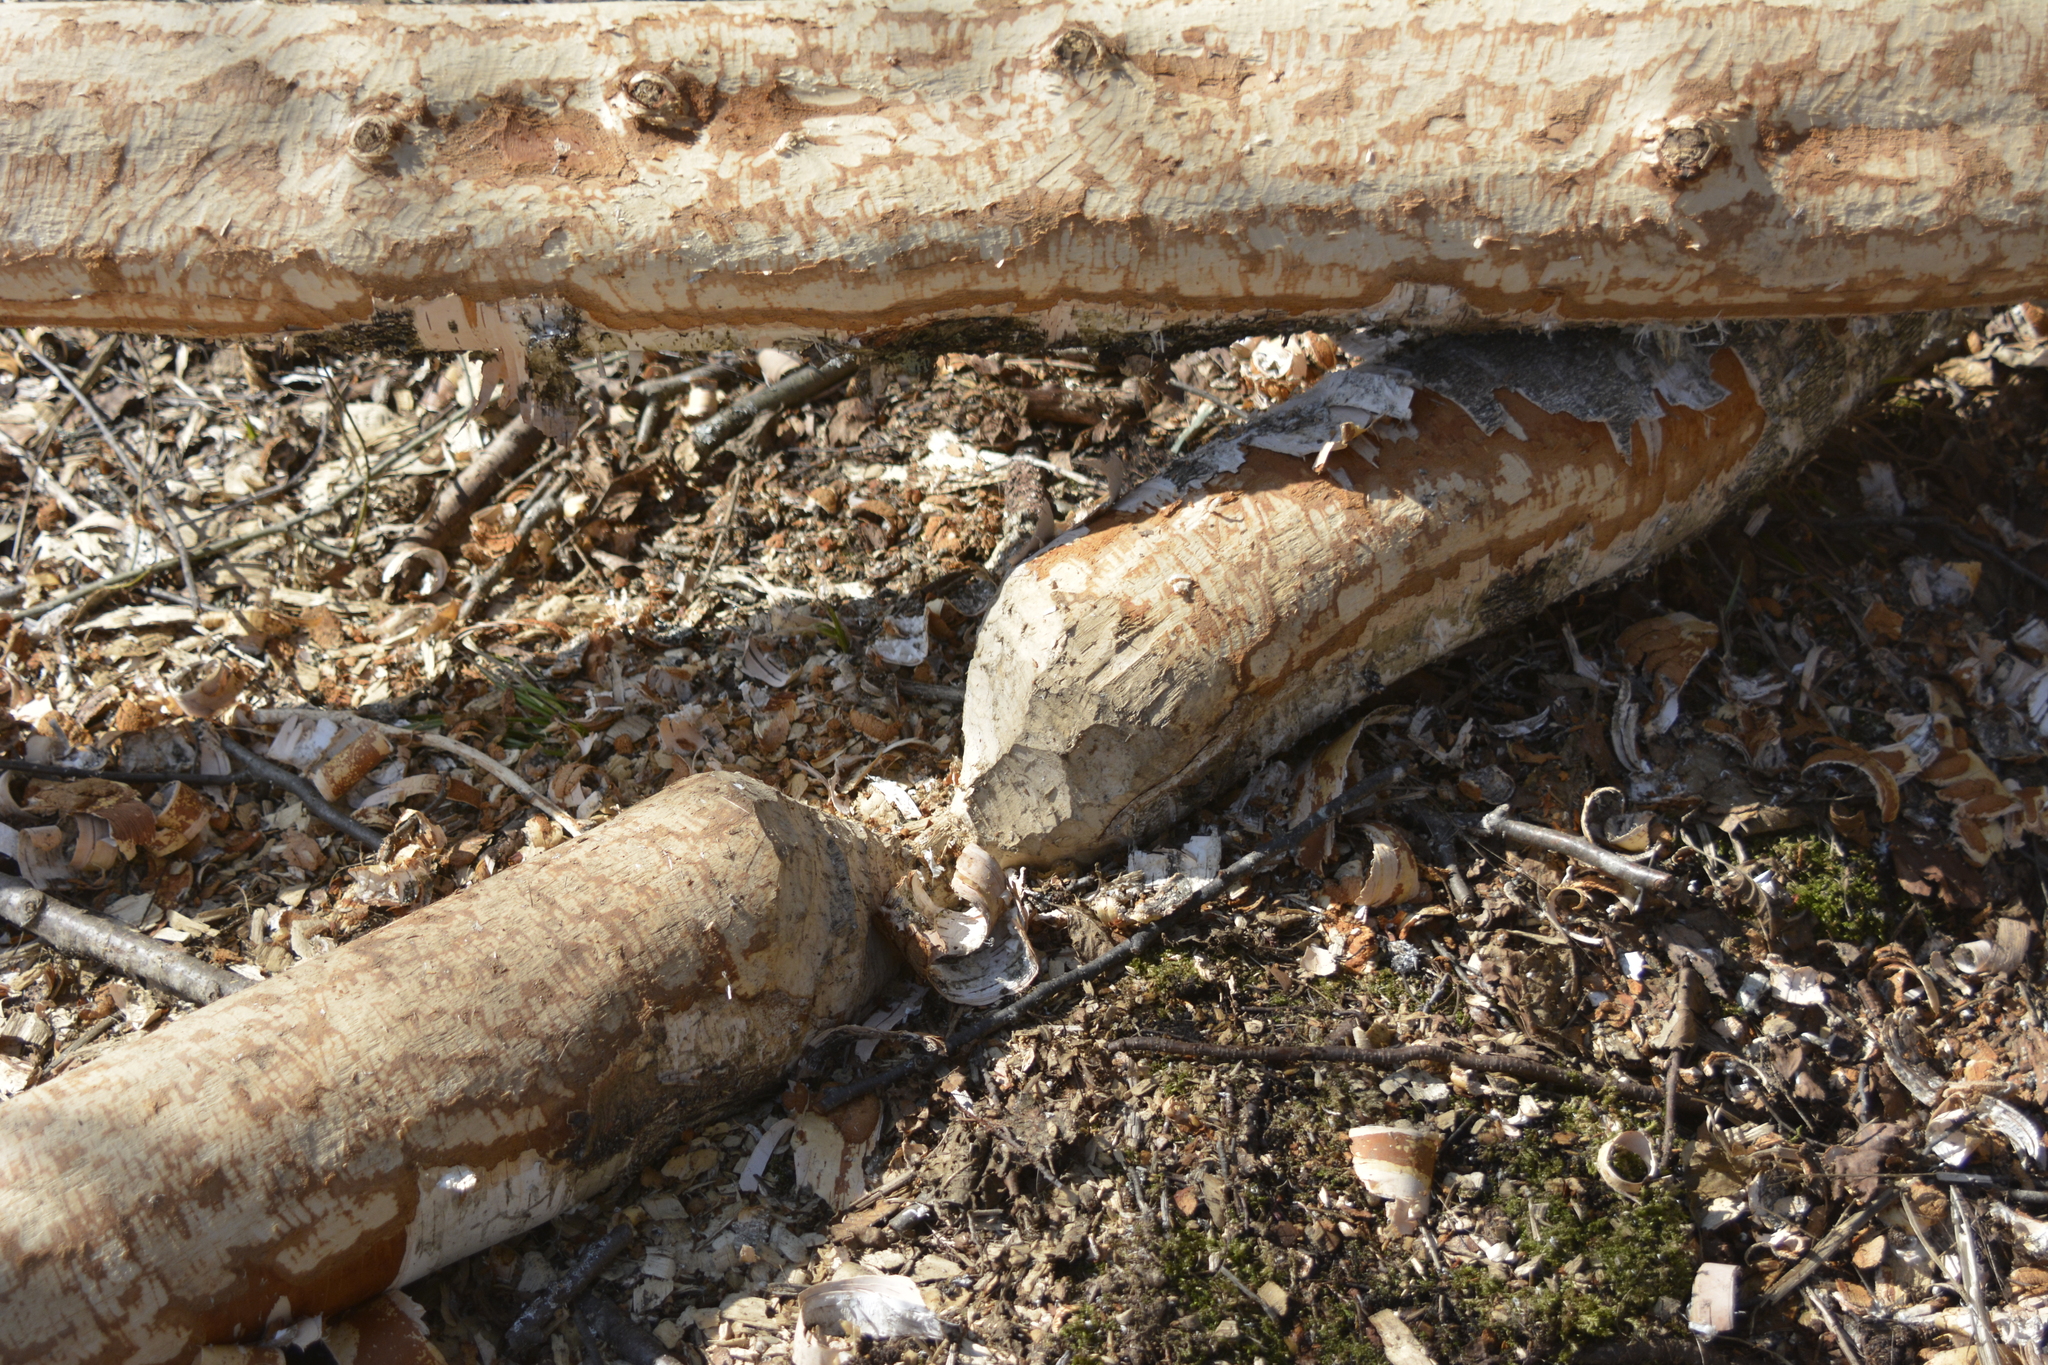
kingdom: Animalia
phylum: Chordata
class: Mammalia
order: Rodentia
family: Castoridae
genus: Castor
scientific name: Castor fiber
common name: Eurasian beaver
